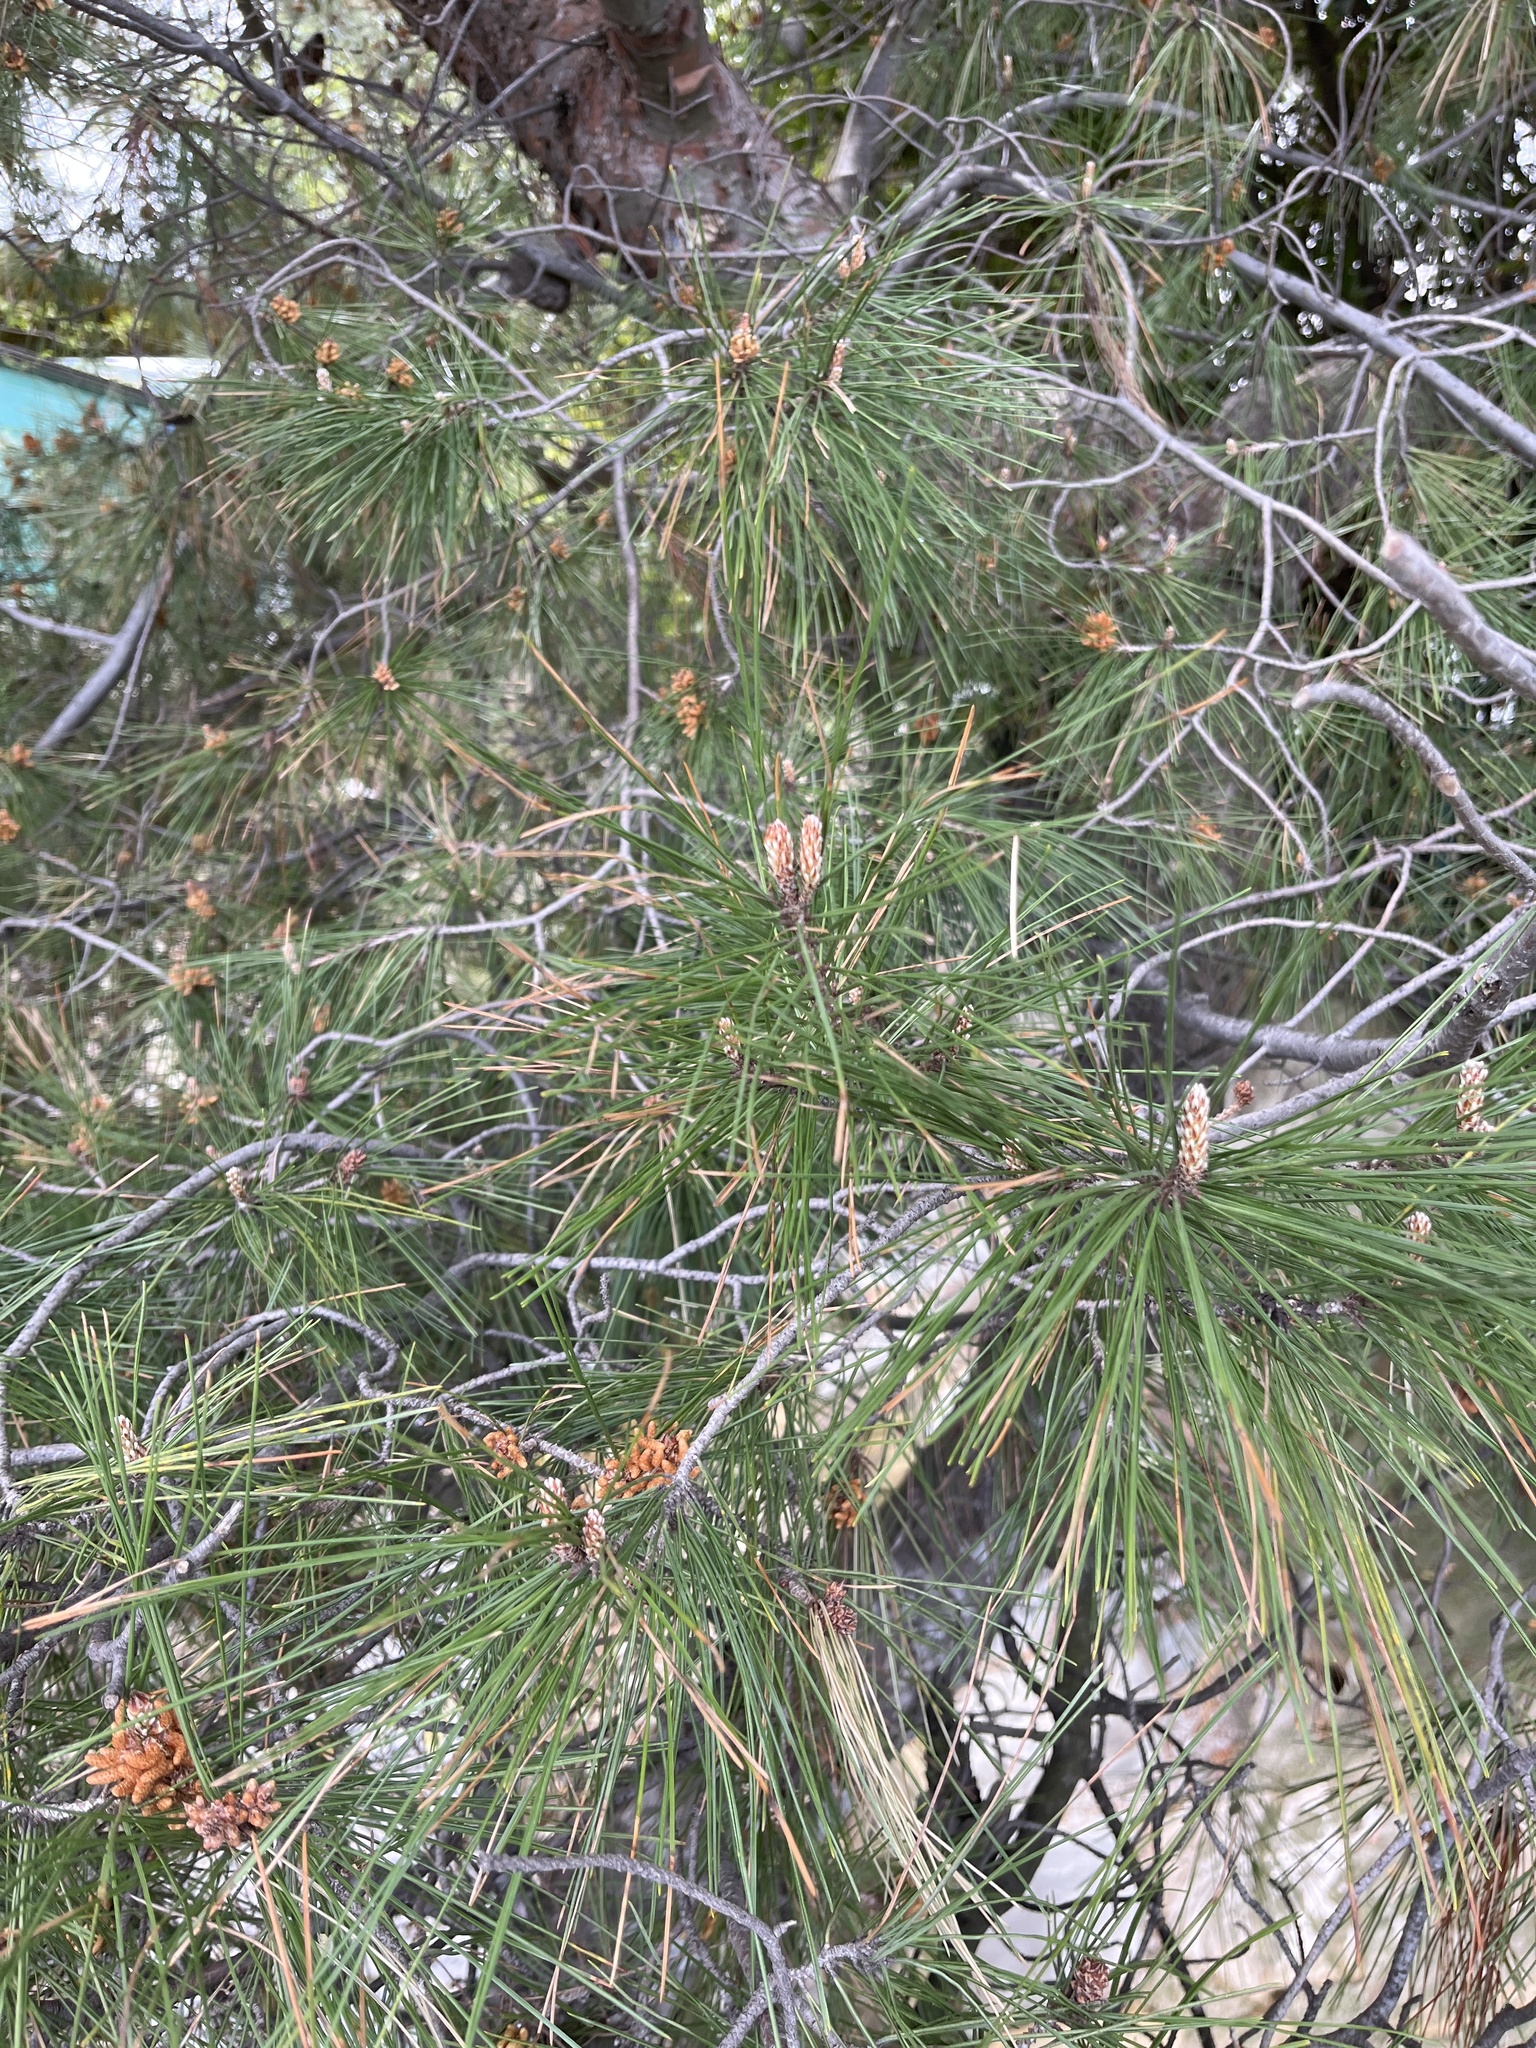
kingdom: Plantae
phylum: Tracheophyta
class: Pinopsida
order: Pinales
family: Pinaceae
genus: Pinus
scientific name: Pinus halepensis
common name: Aleppo pine
